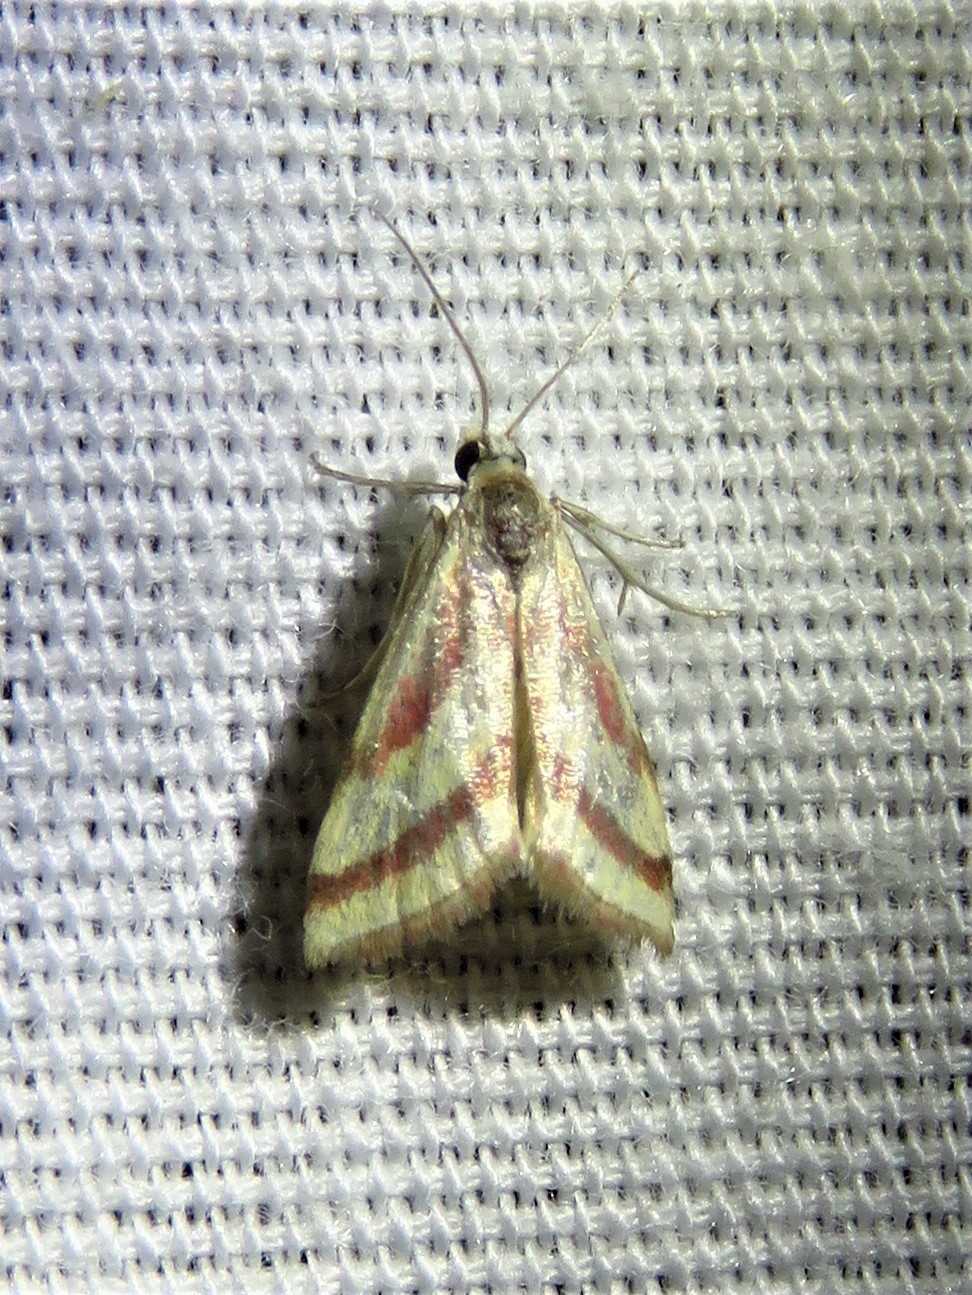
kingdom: Animalia
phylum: Arthropoda
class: Insecta
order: Lepidoptera
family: Crambidae
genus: Microtheoris
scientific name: Microtheoris vibicalis
